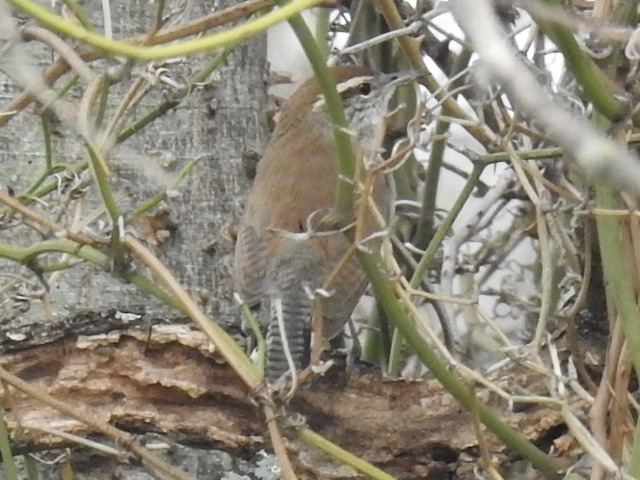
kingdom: Animalia
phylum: Chordata
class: Aves
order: Passeriformes
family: Troglodytidae
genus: Thryomanes
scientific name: Thryomanes bewickii
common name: Bewick's wren
